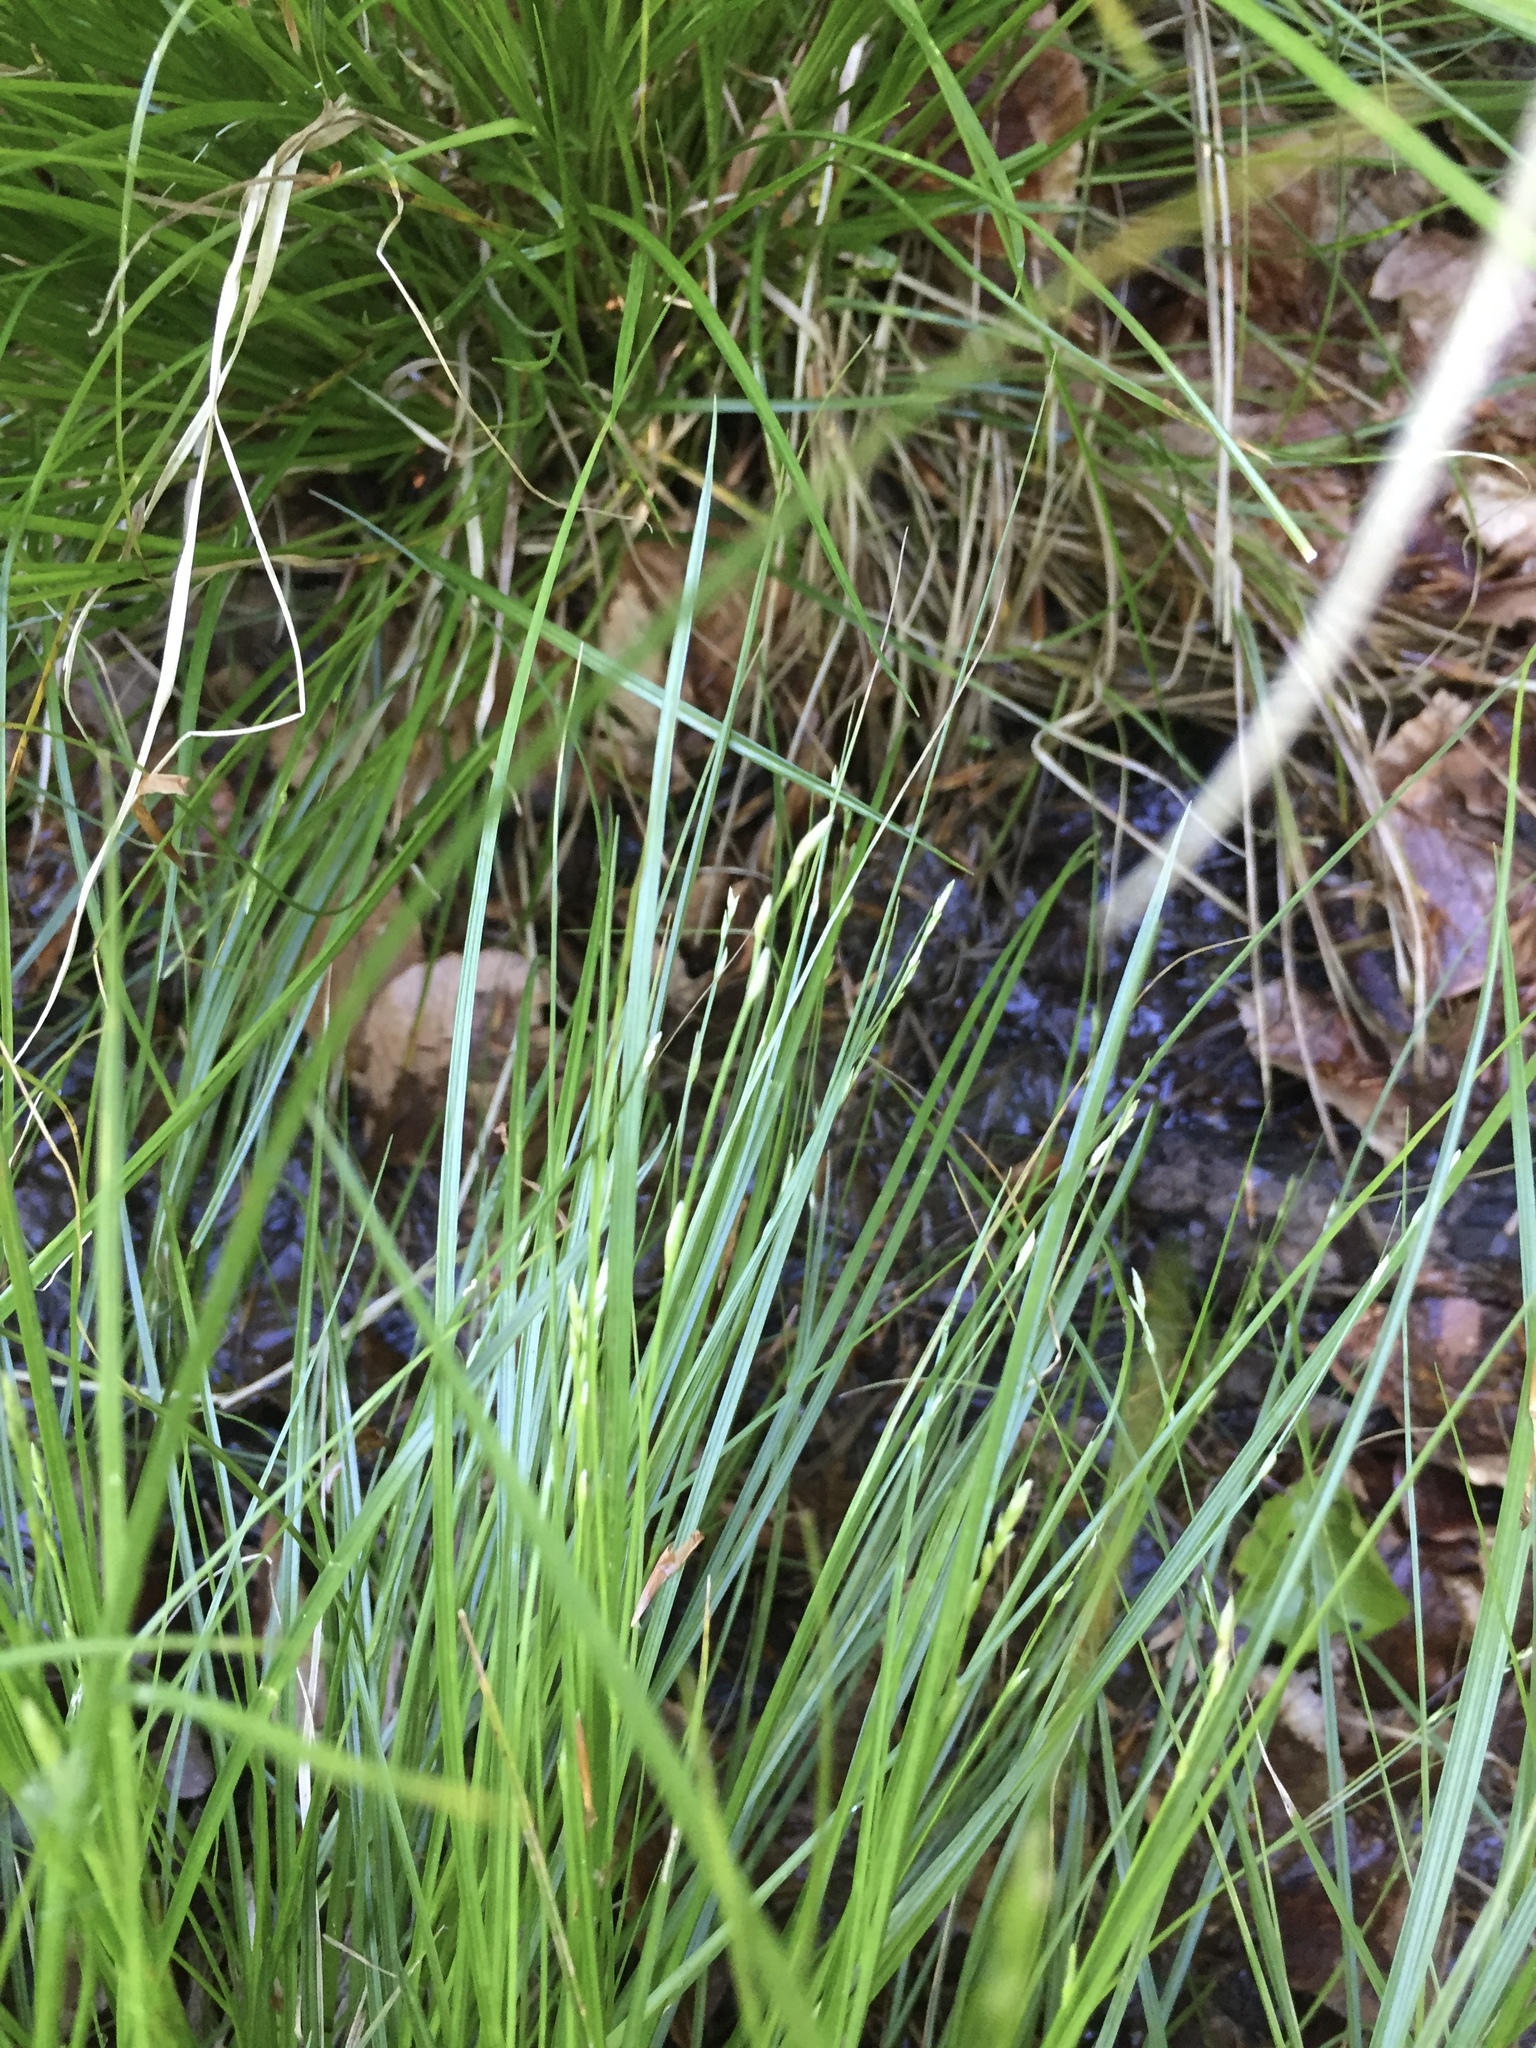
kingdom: Plantae
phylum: Tracheophyta
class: Liliopsida
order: Poales
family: Cyperaceae
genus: Carex
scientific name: Carex remota
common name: Remote sedge
